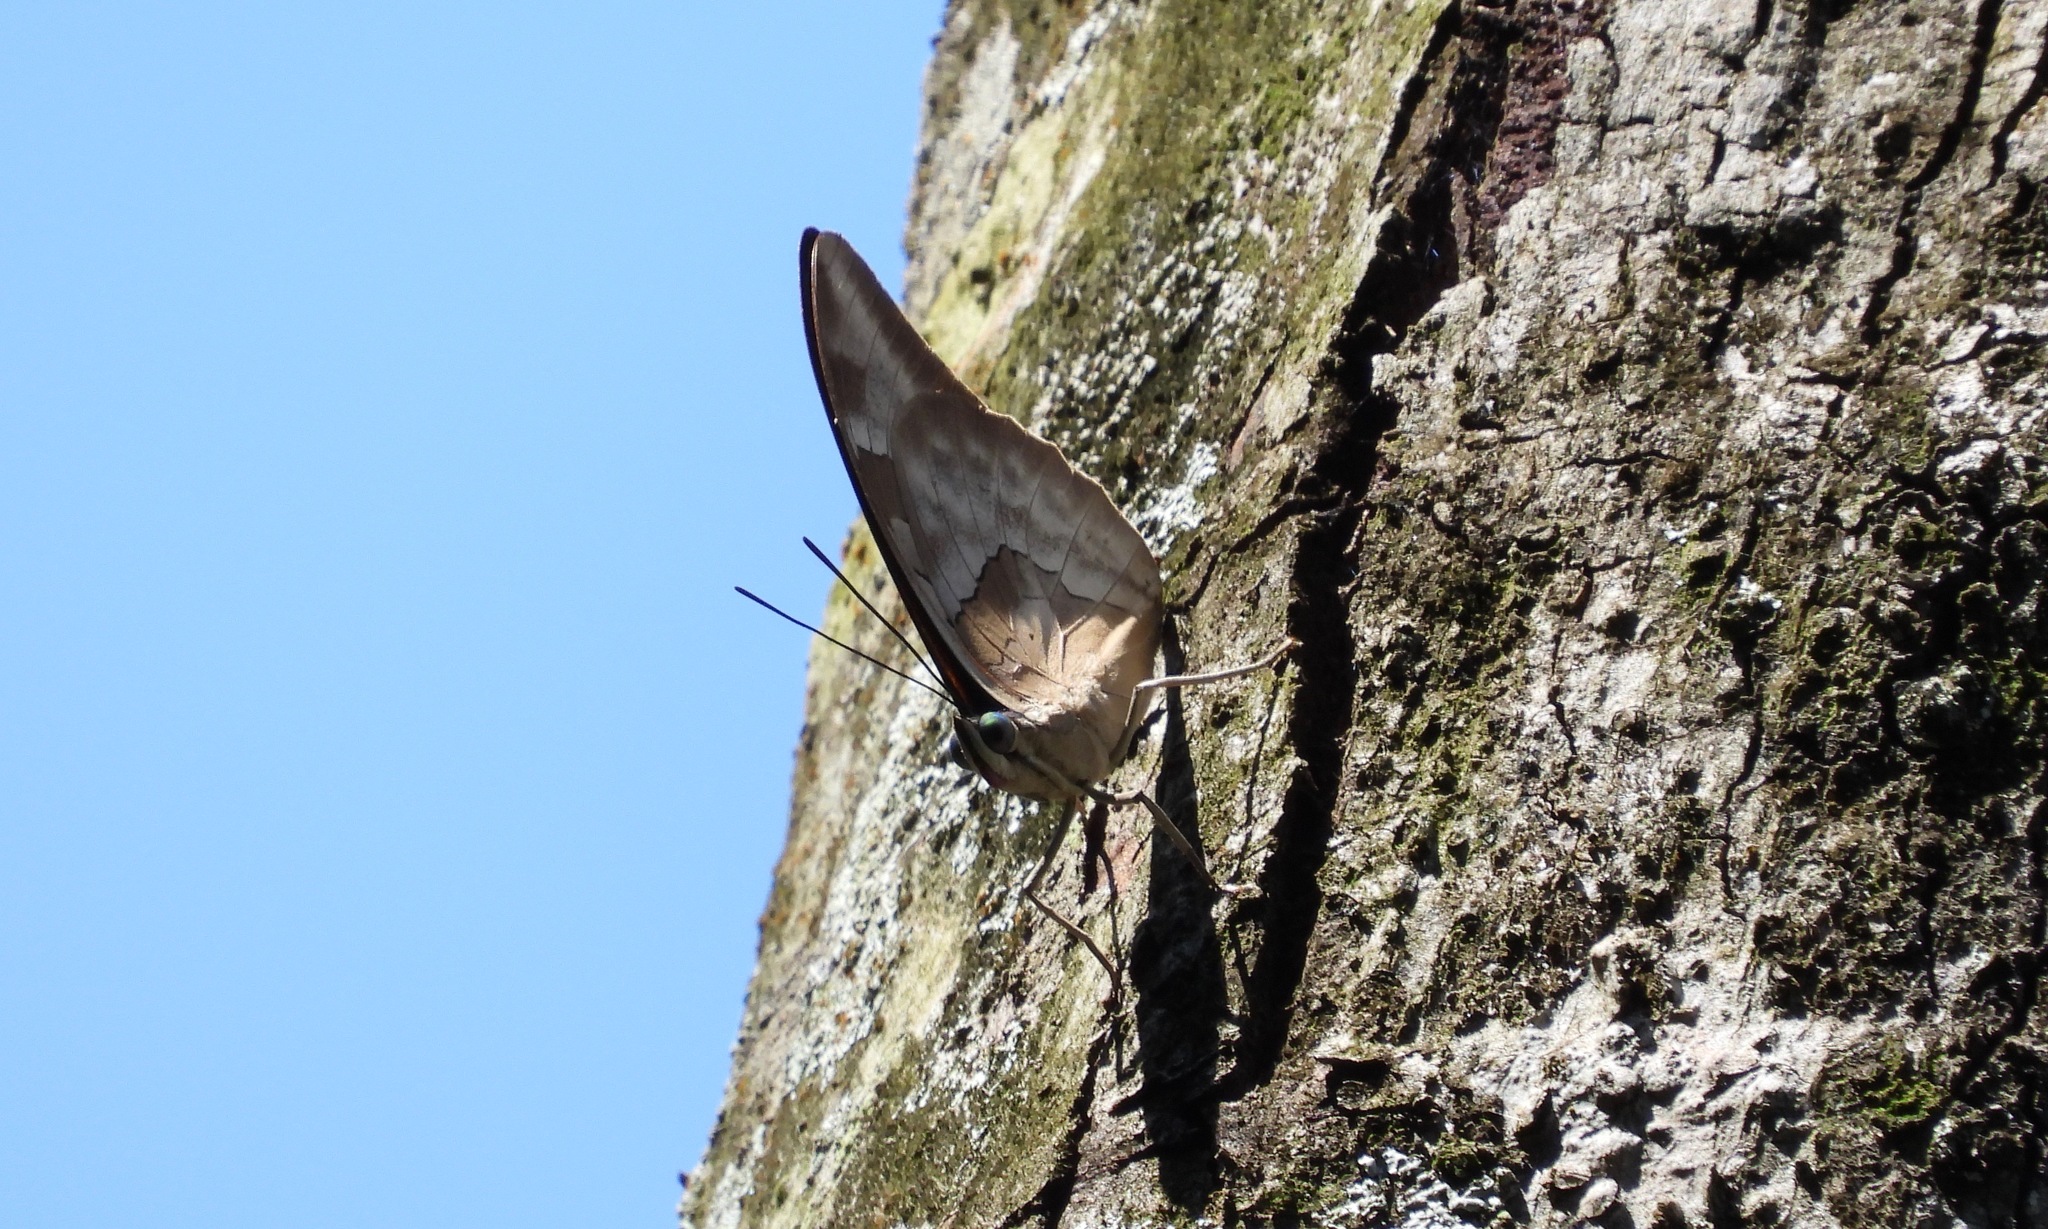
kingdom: Animalia
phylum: Arthropoda
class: Insecta
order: Lepidoptera
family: Nymphalidae
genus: Prepona
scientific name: Prepona demophon
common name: One-spotted prepona
